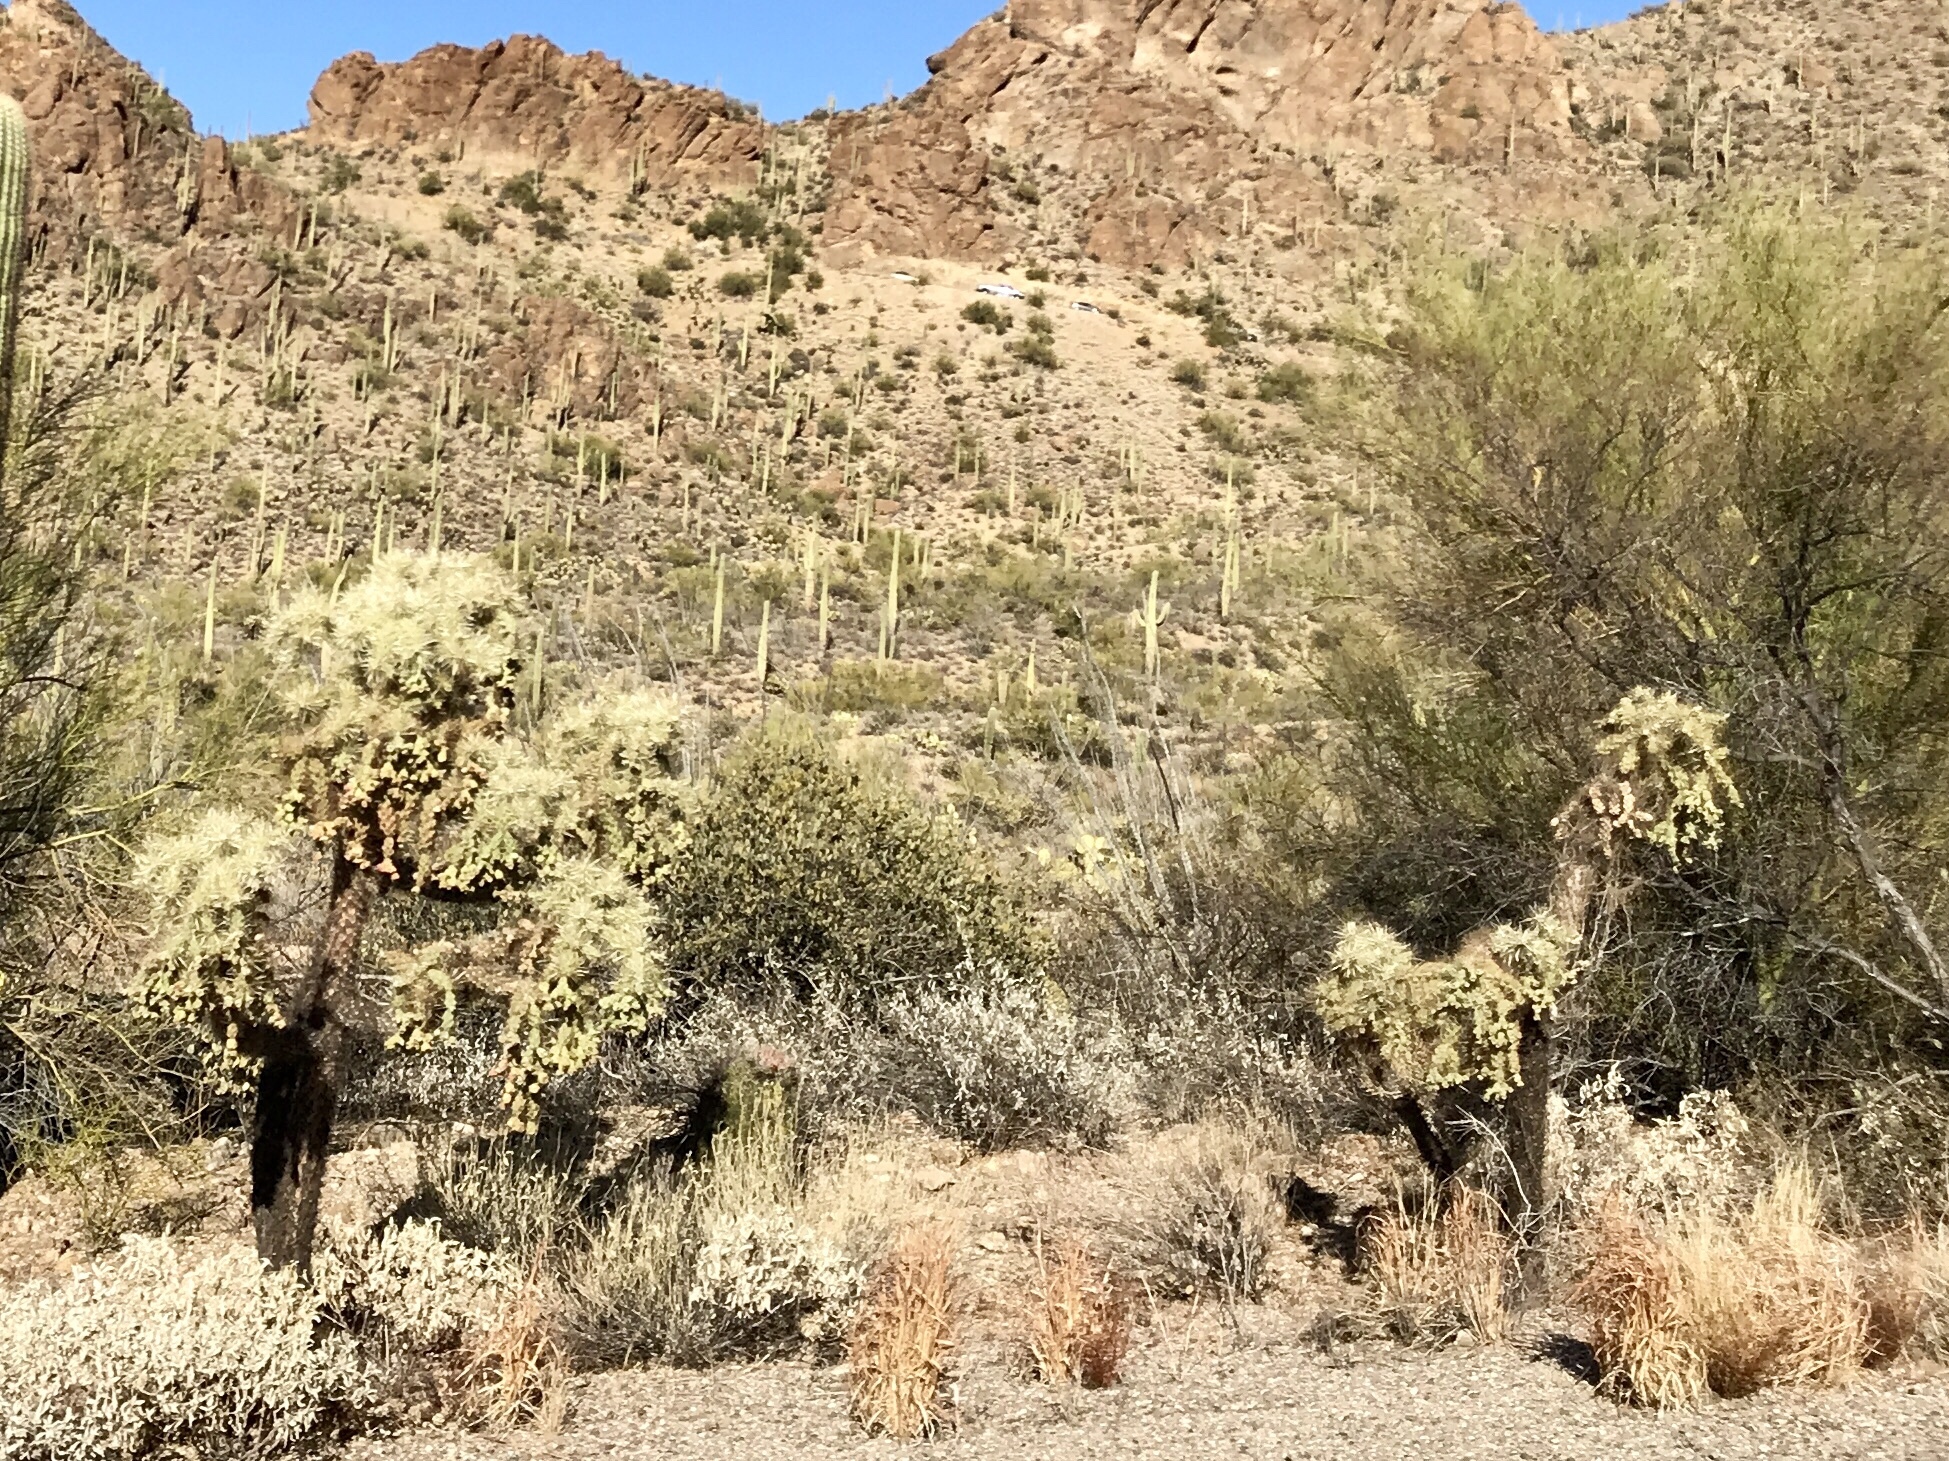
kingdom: Plantae
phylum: Tracheophyta
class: Magnoliopsida
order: Caryophyllales
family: Cactaceae
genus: Cylindropuntia
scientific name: Cylindropuntia fulgida
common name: Jumping cholla
